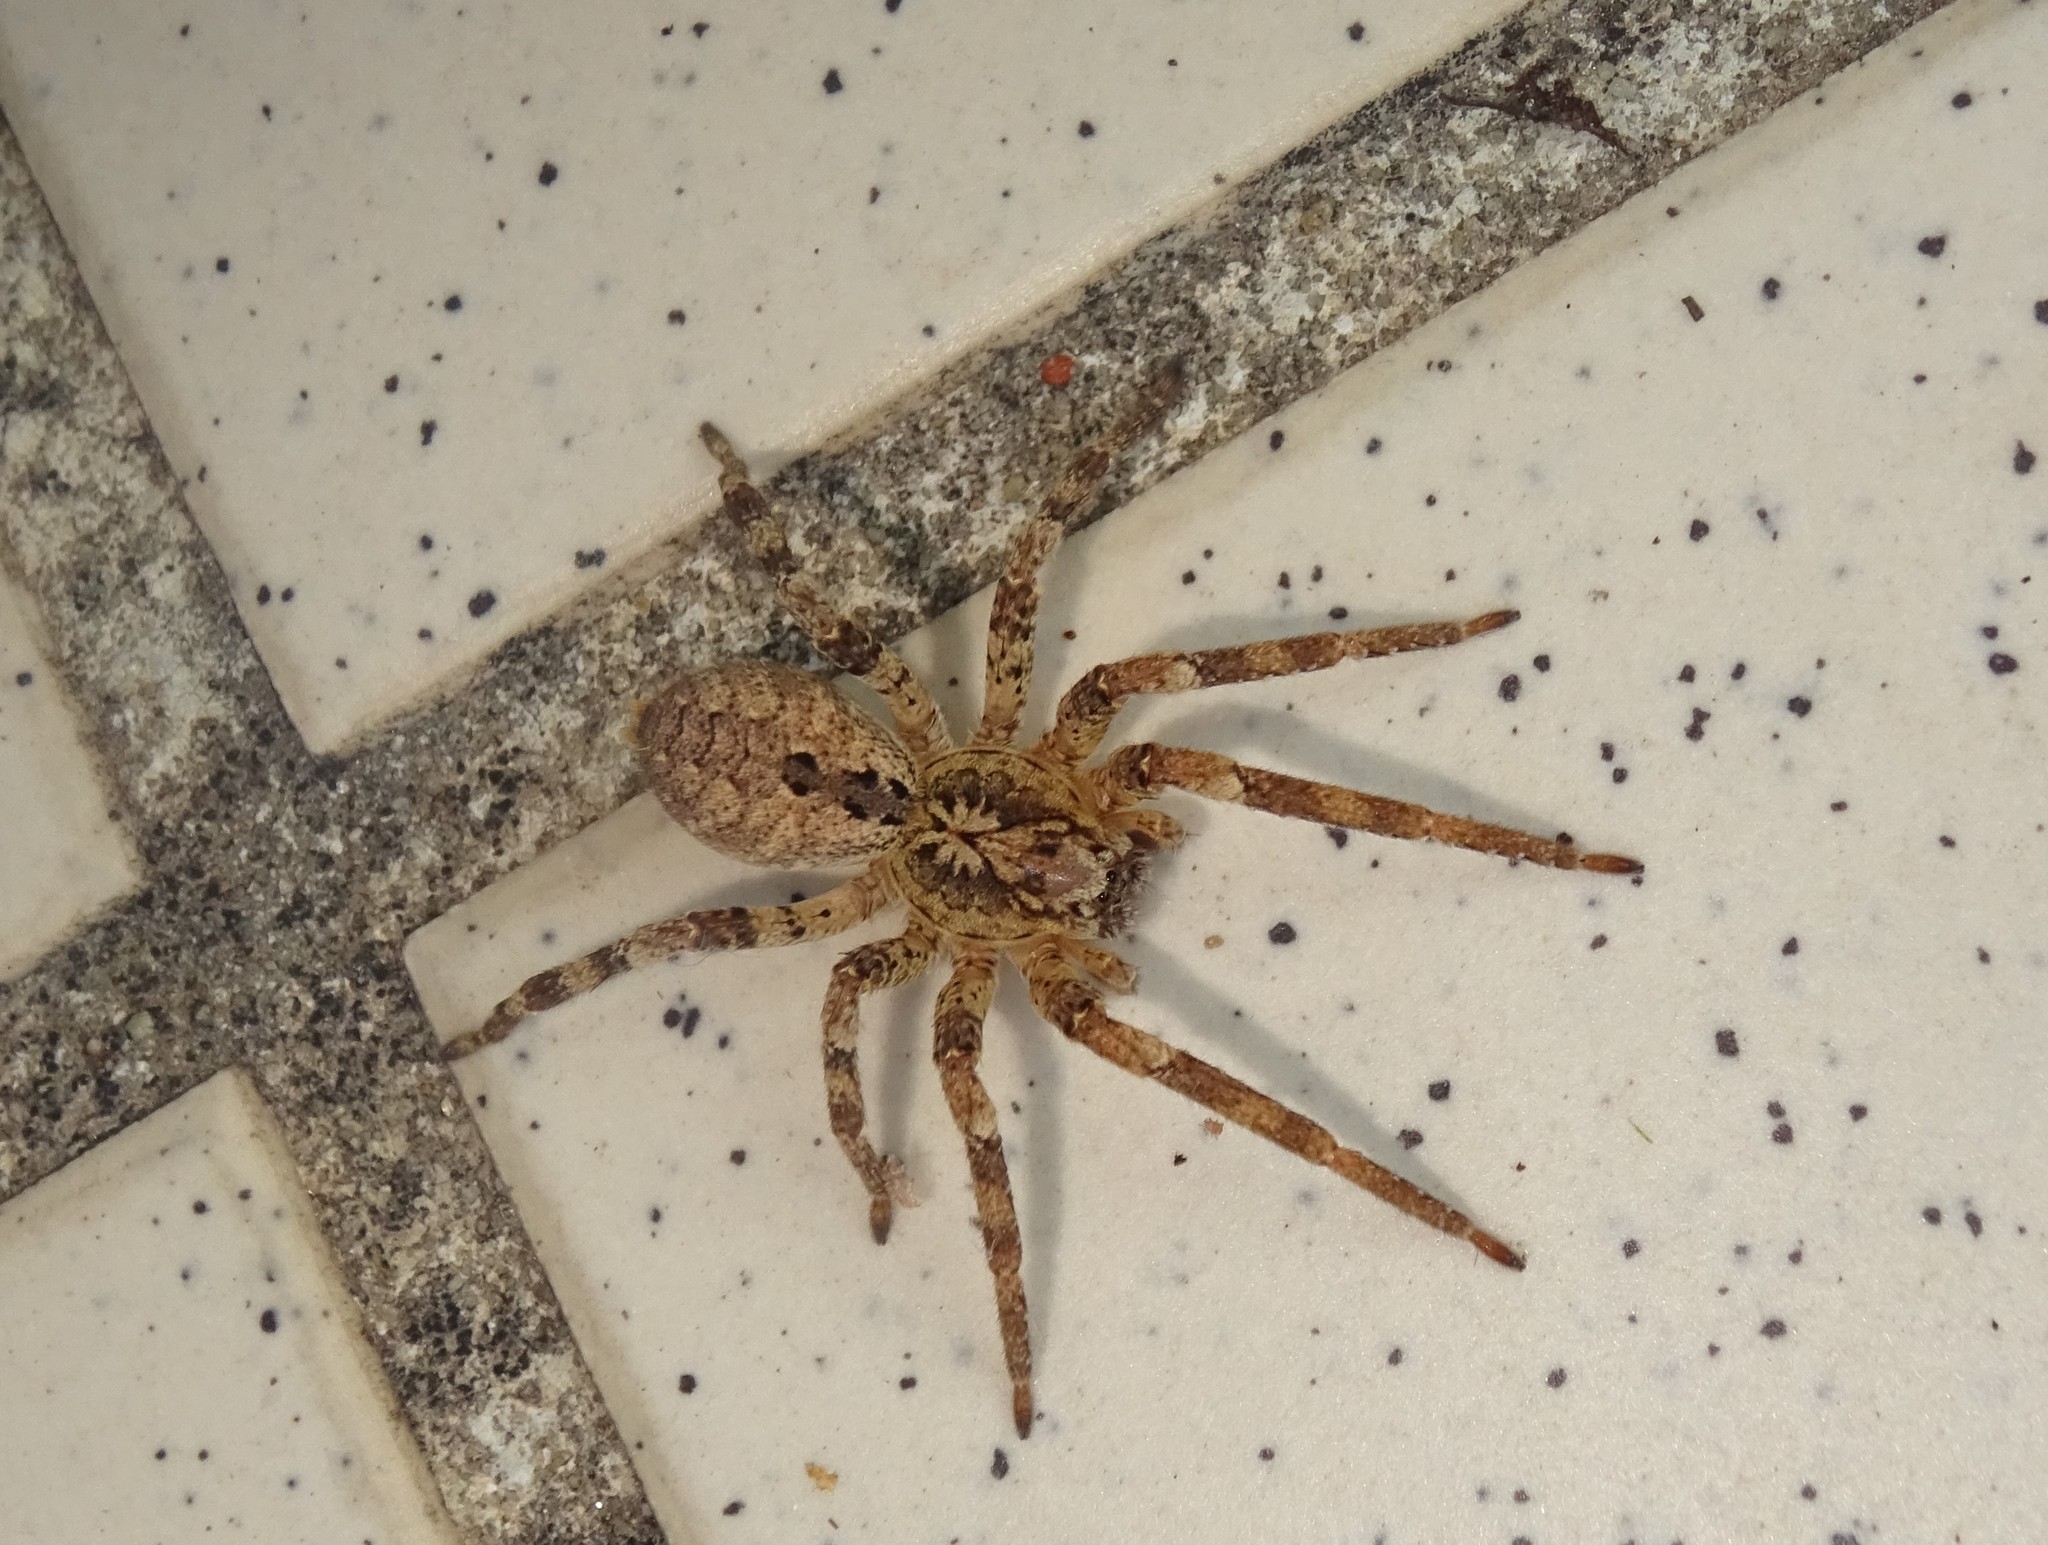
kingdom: Animalia
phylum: Arthropoda
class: Arachnida
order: Araneae
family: Zoropsidae
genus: Zoropsis
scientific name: Zoropsis spinimana
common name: Zoropsid spider
